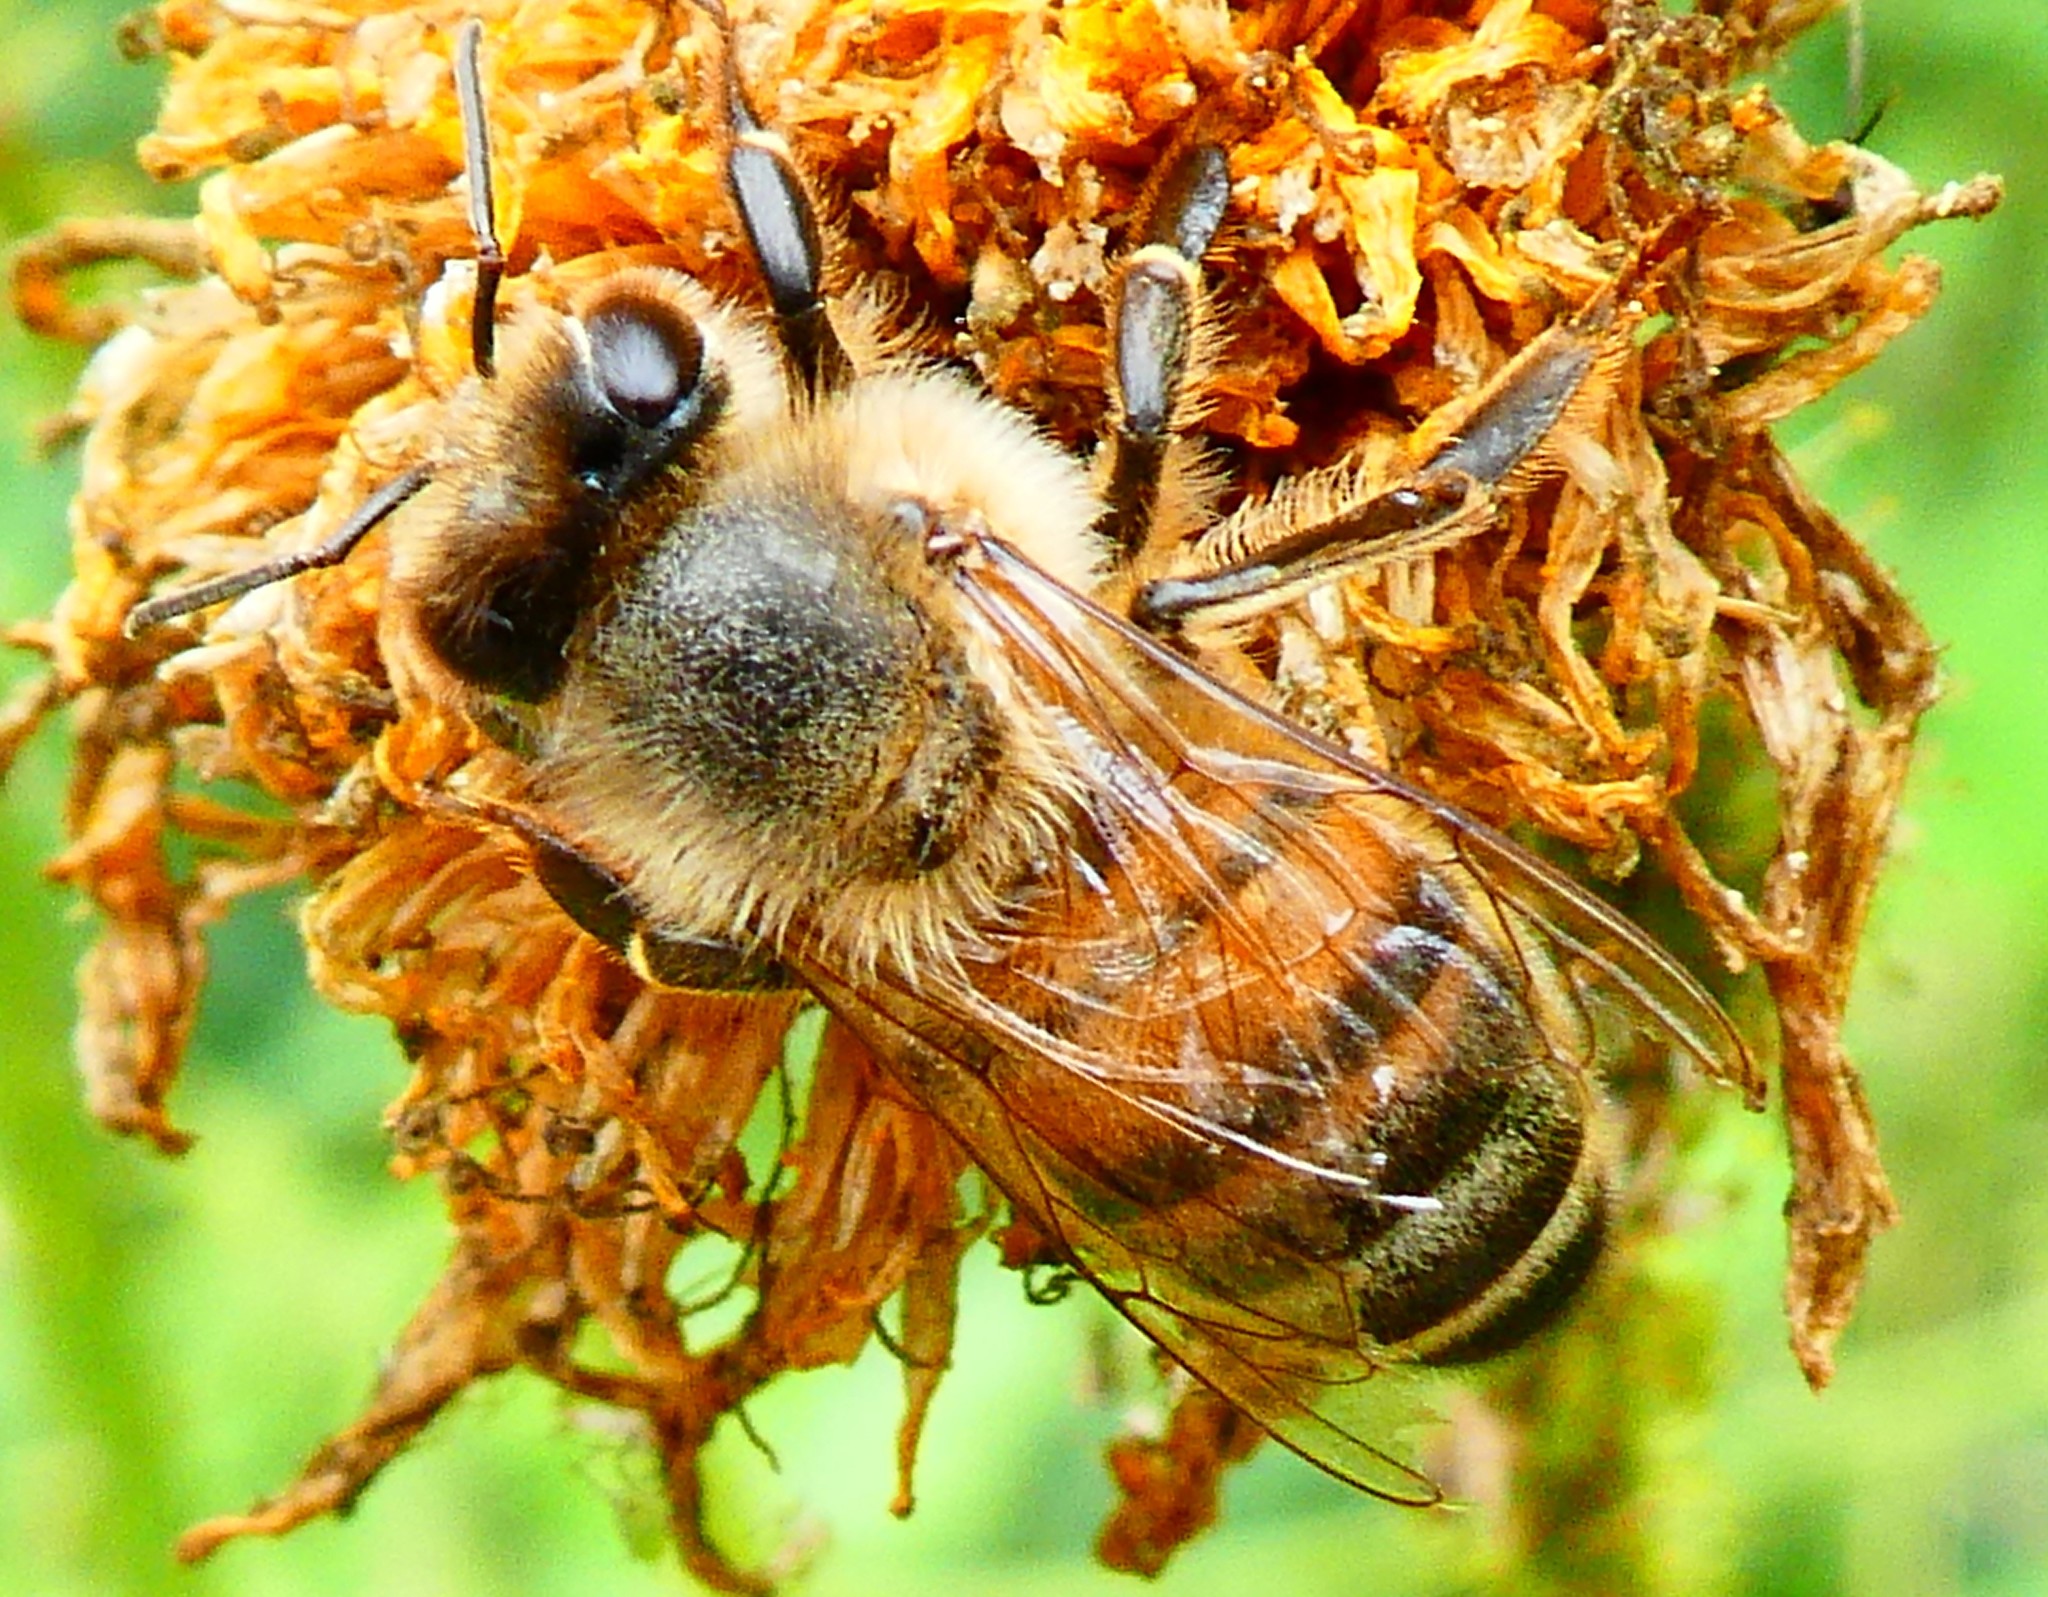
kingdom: Animalia
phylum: Arthropoda
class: Insecta
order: Hymenoptera
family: Apidae
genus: Apis
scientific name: Apis mellifera
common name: Honey bee
